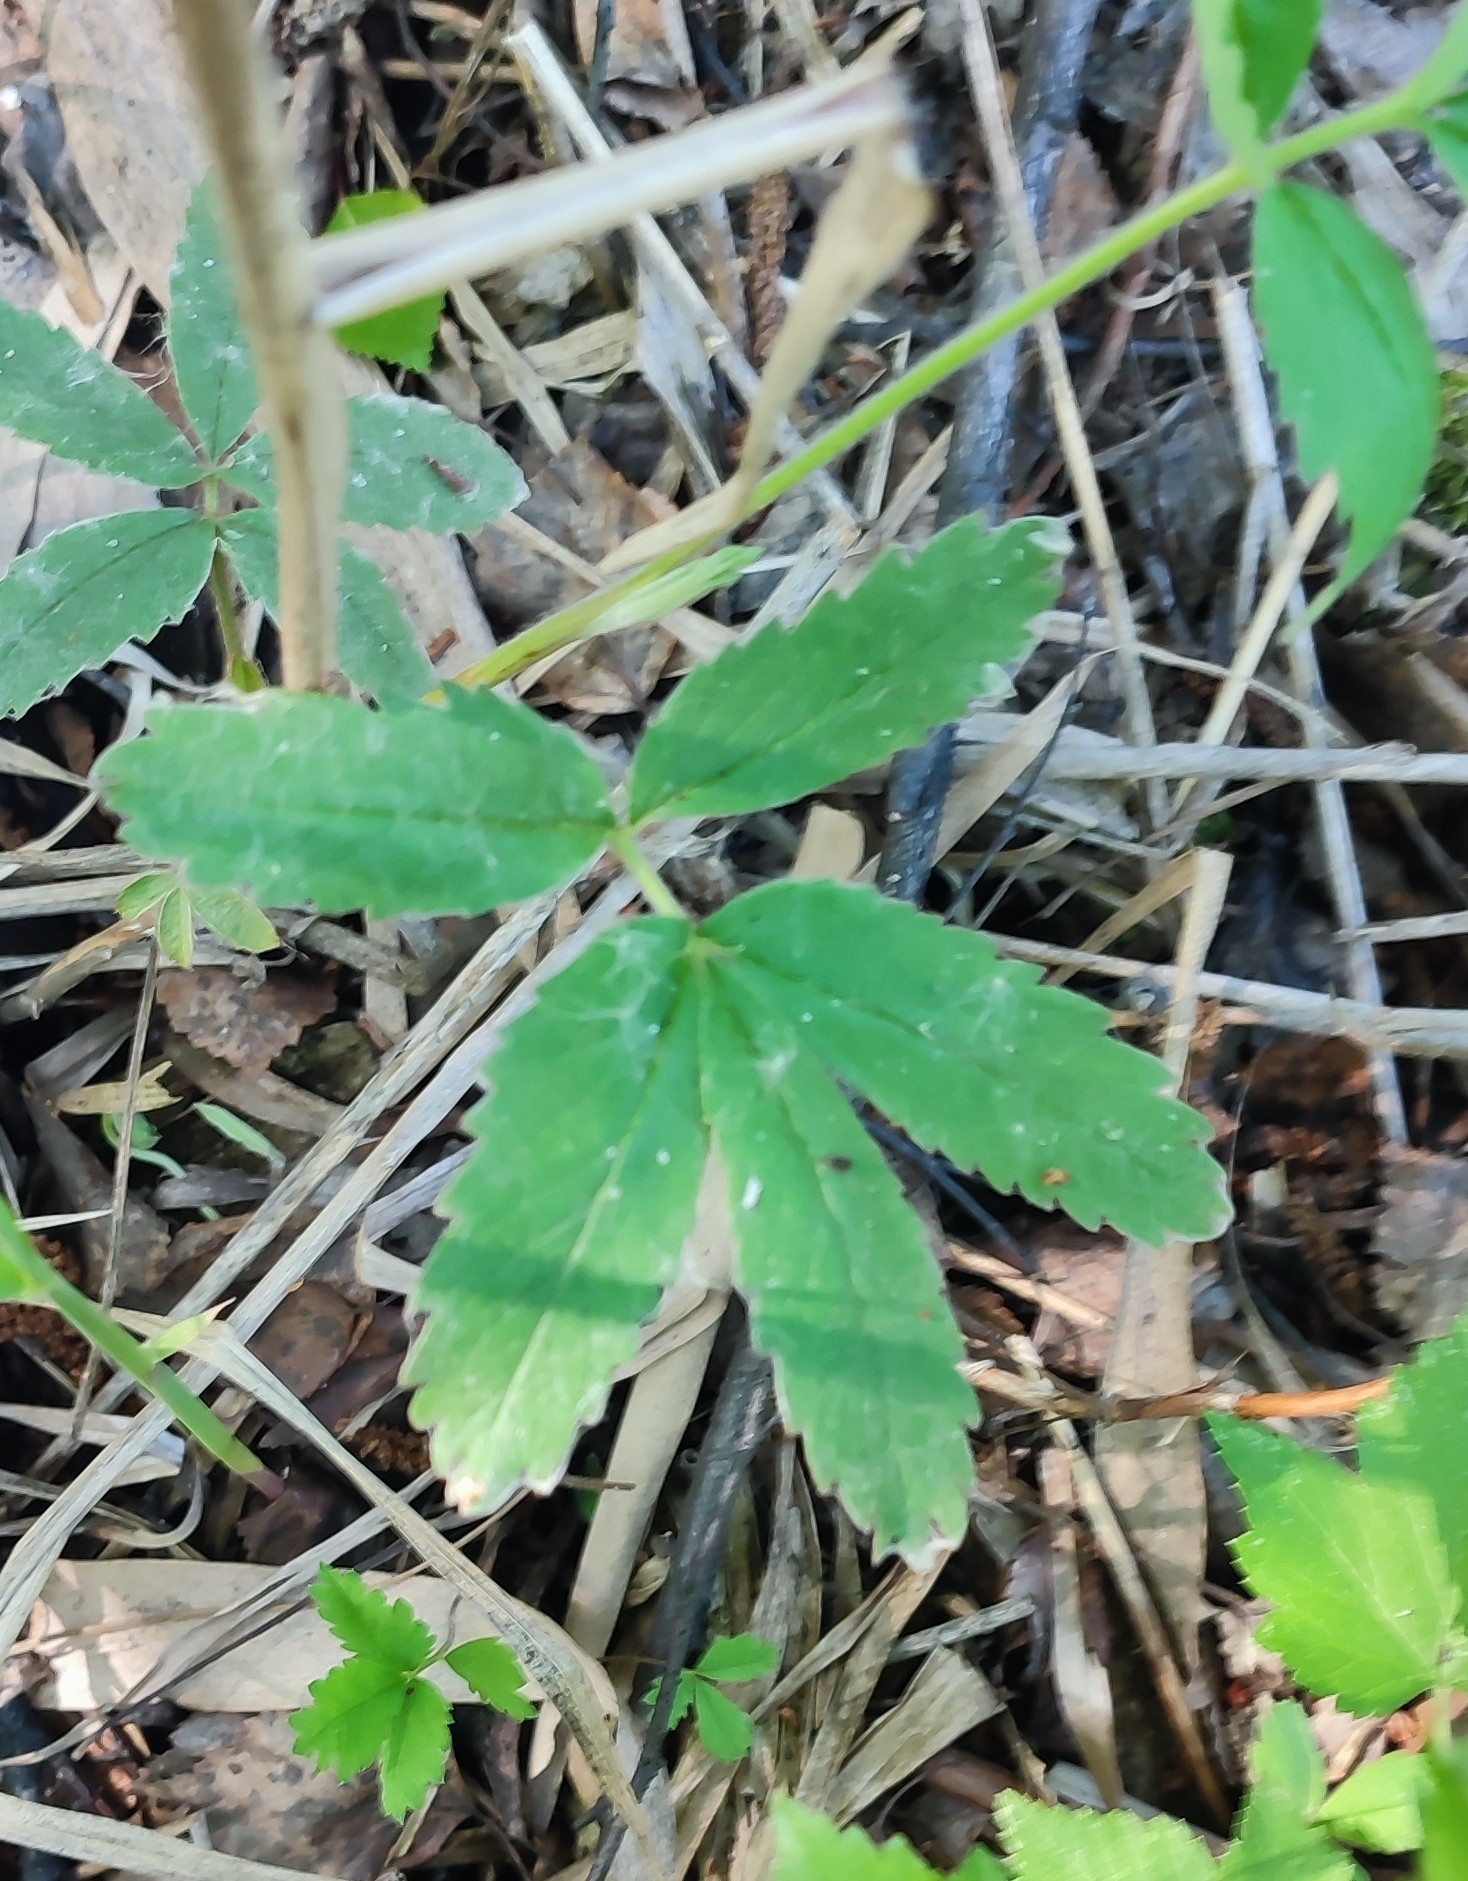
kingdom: Plantae
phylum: Tracheophyta
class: Magnoliopsida
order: Rosales
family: Rosaceae
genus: Comarum
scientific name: Comarum palustre
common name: Marsh cinquefoil
